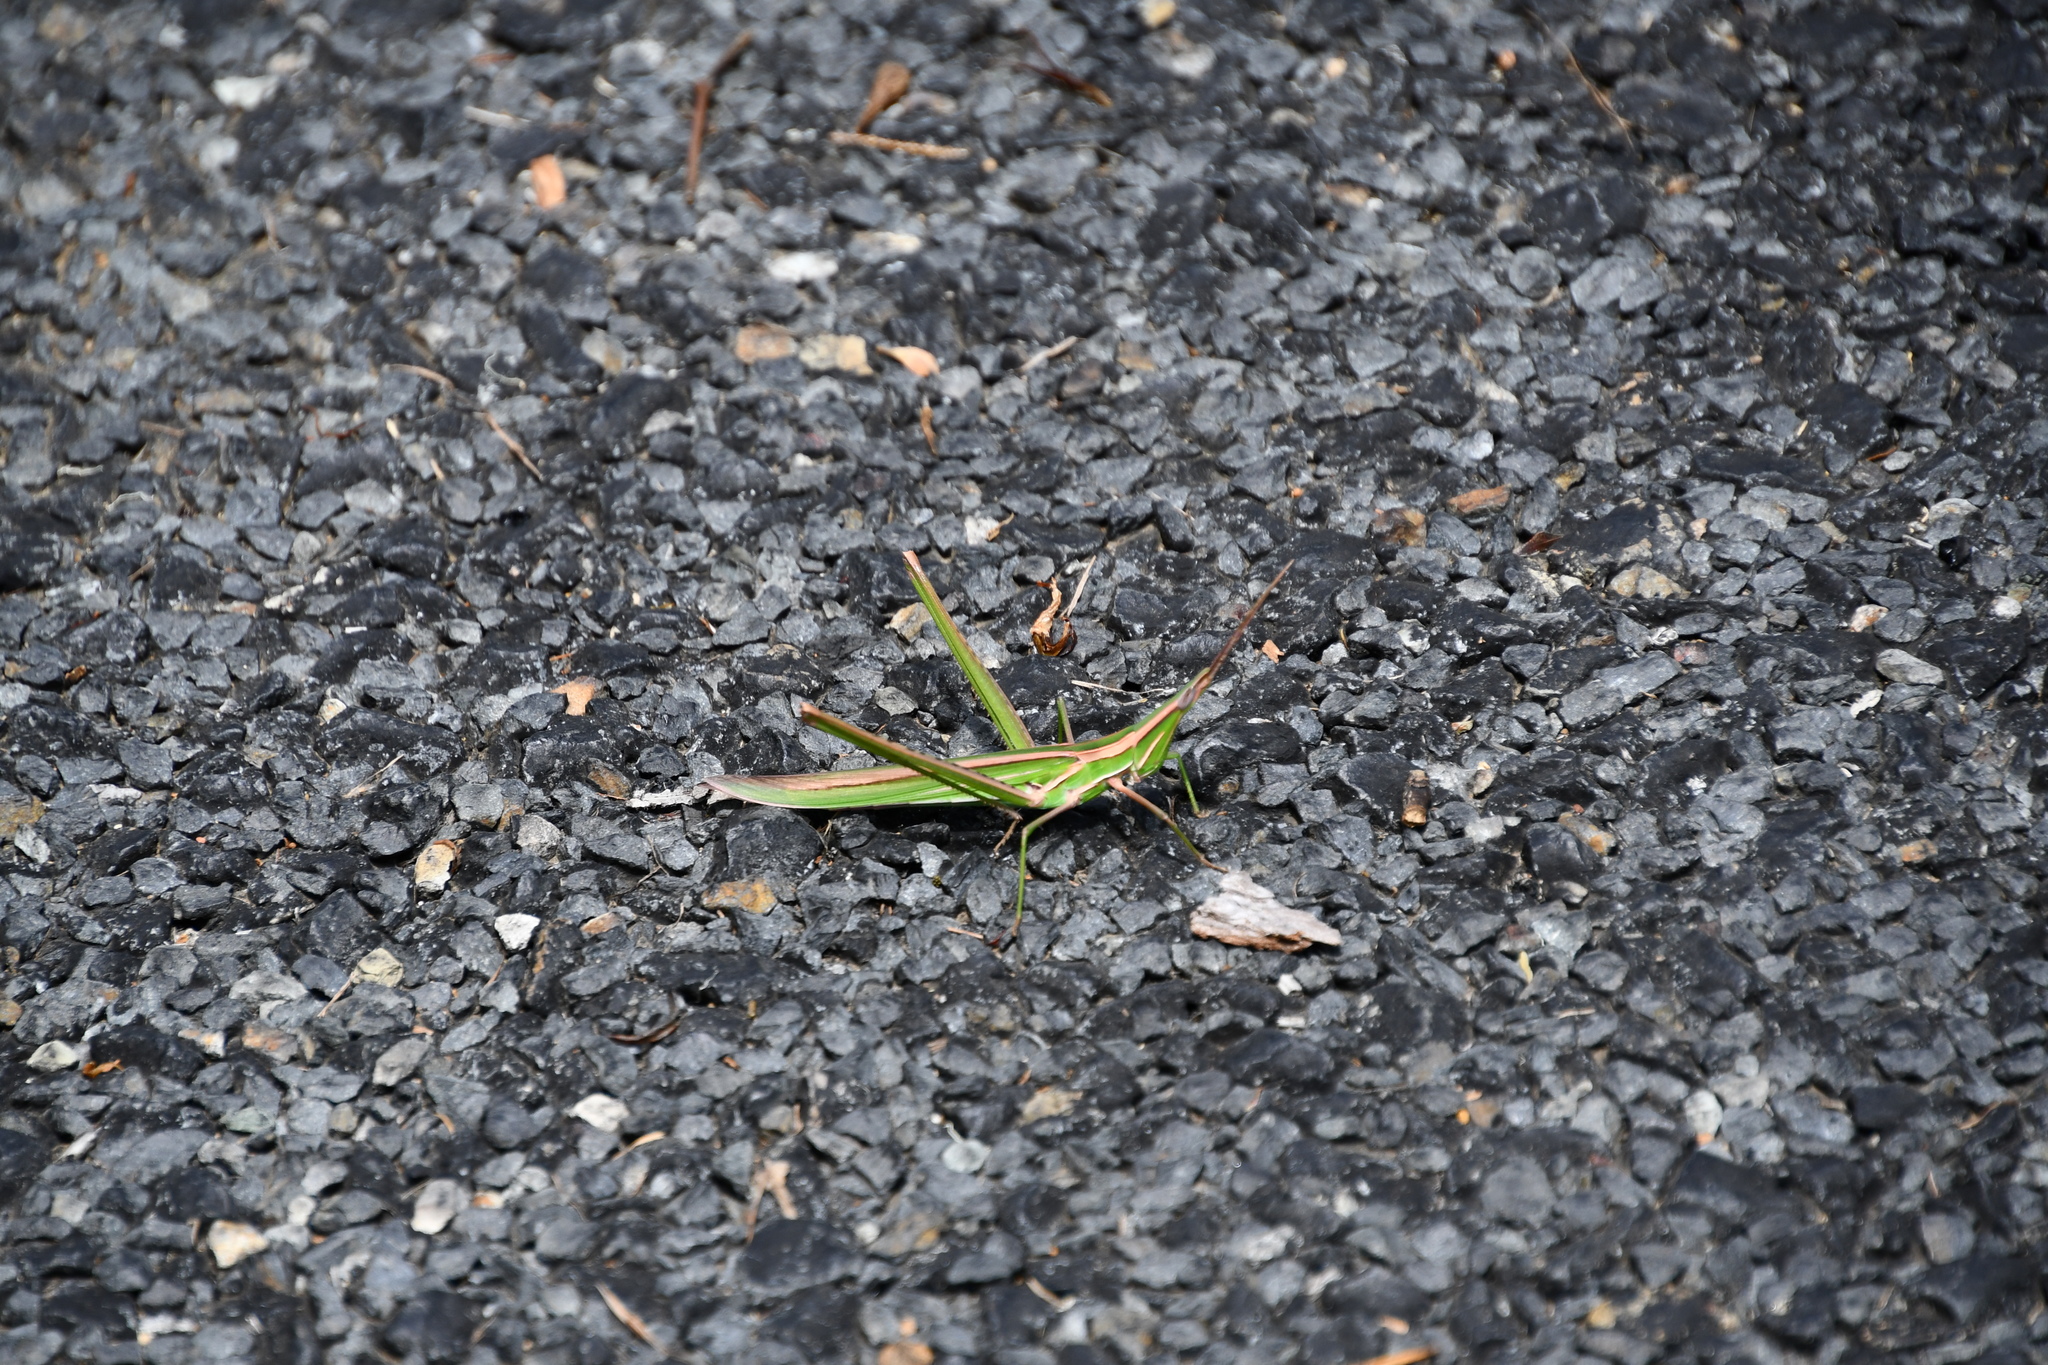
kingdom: Animalia
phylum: Arthropoda
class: Insecta
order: Orthoptera
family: Acrididae
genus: Acrida
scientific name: Acrida conica
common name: Giant green slantface
